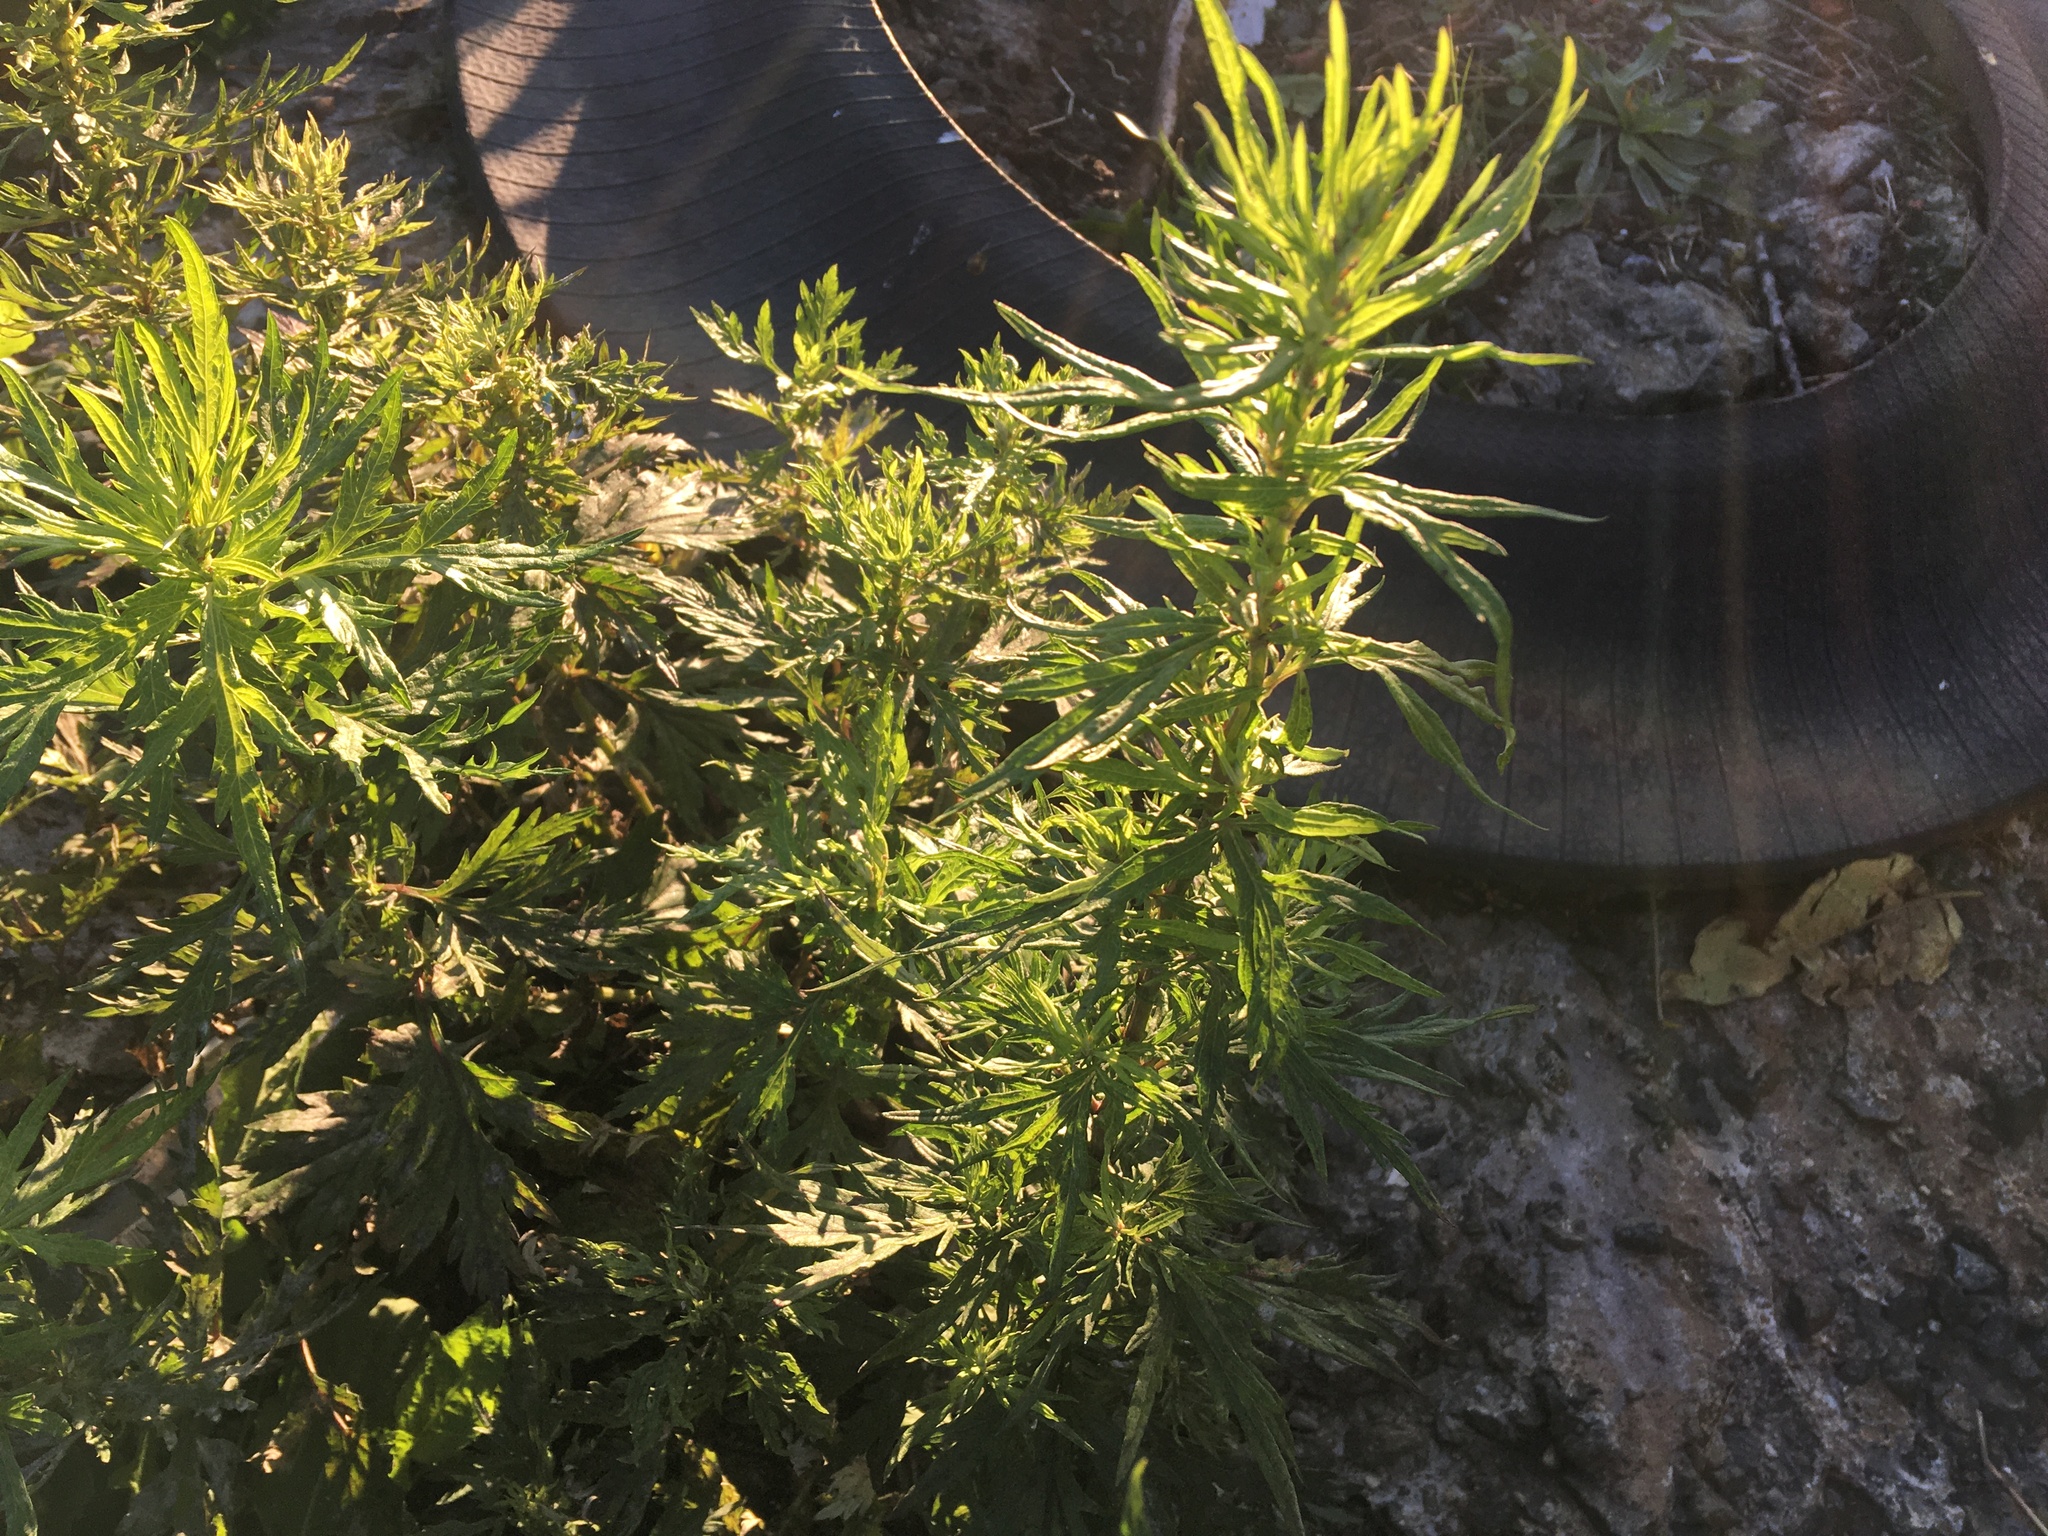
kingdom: Plantae
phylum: Tracheophyta
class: Magnoliopsida
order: Asterales
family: Asteraceae
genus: Artemisia
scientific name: Artemisia vulgaris
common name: Mugwort
